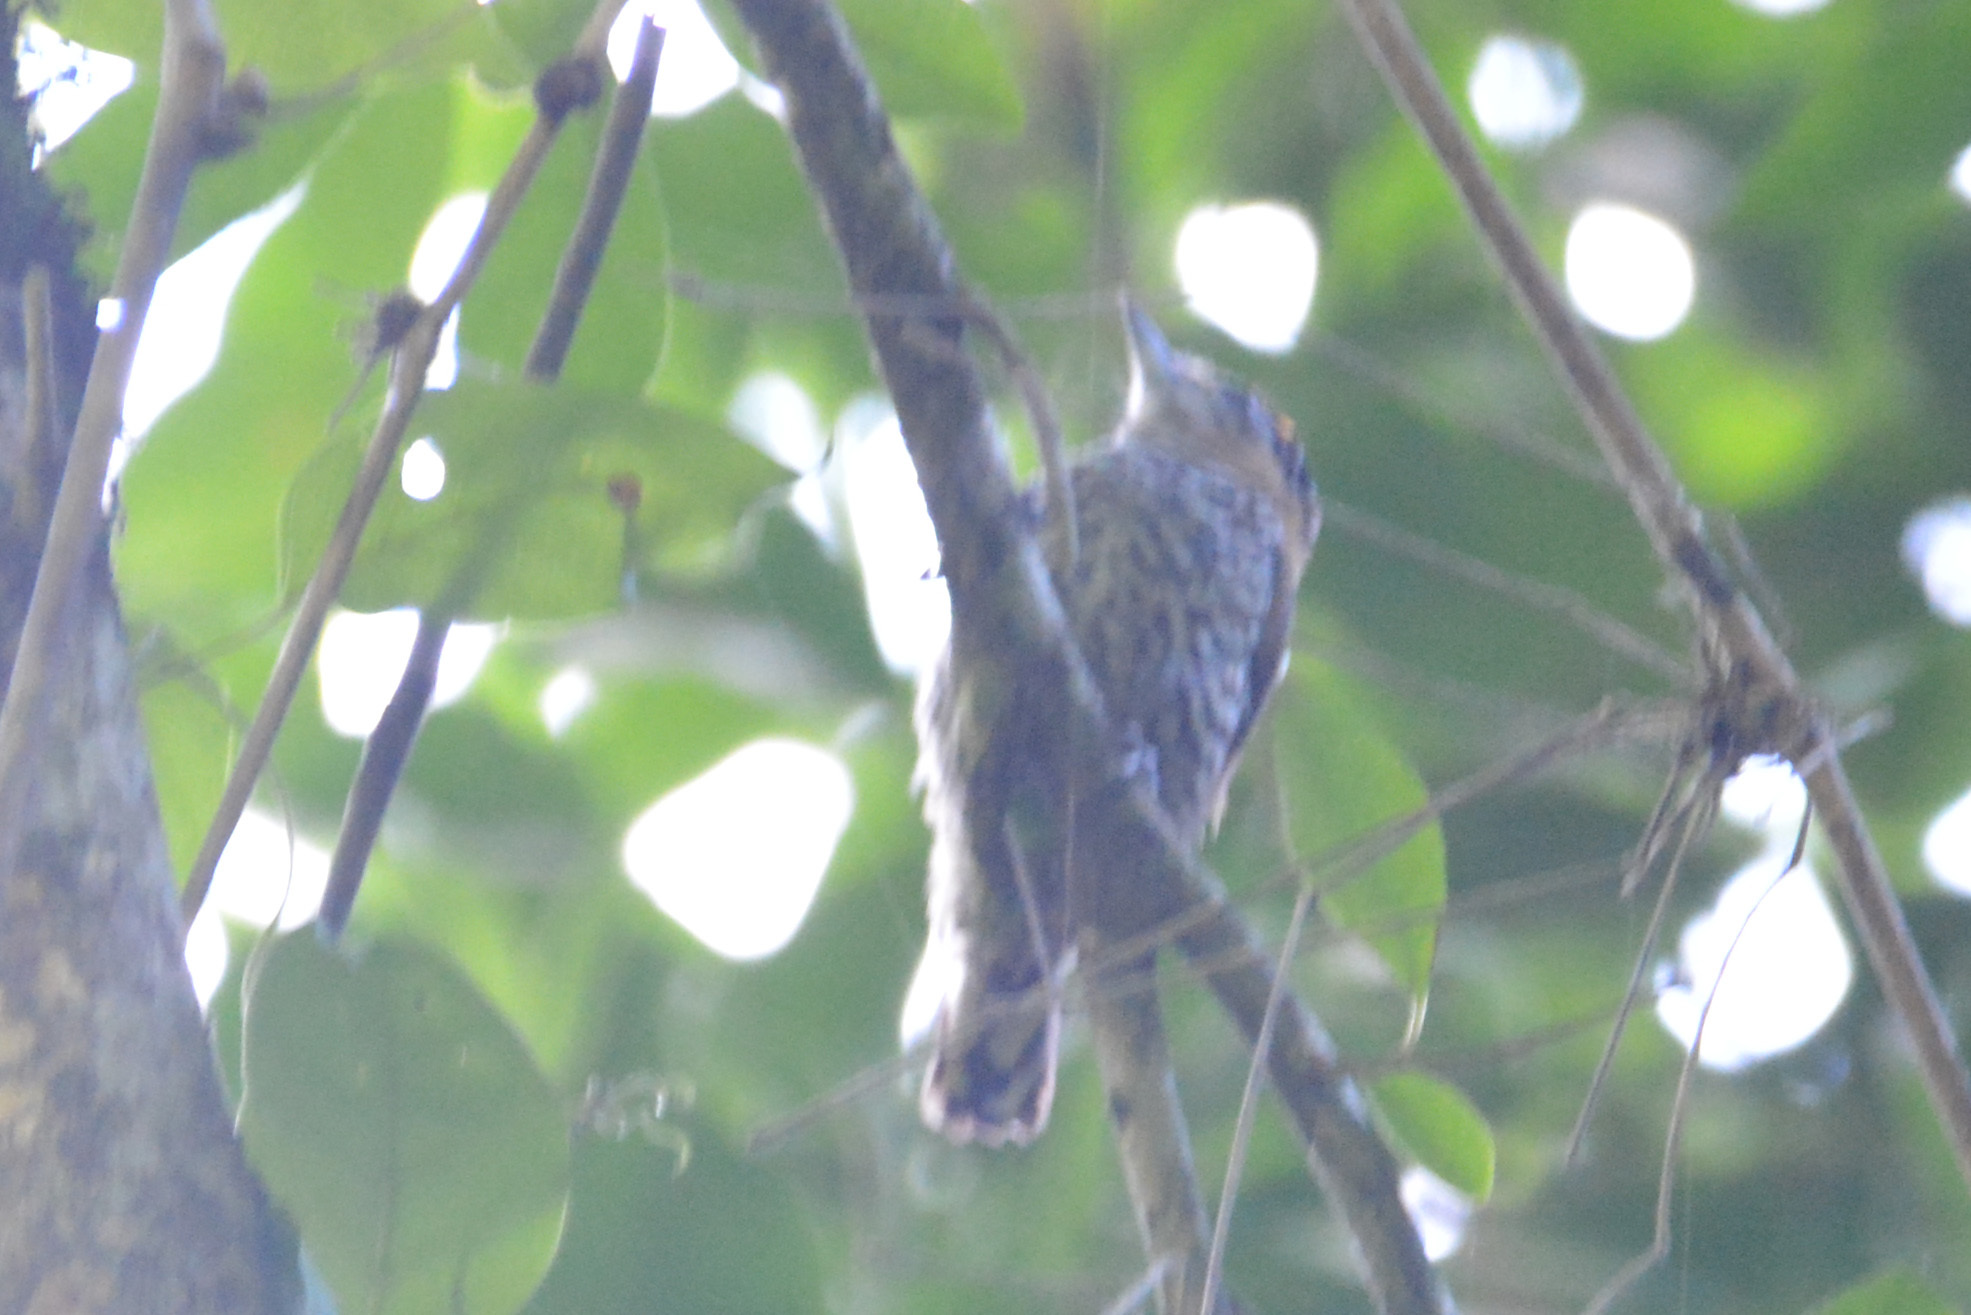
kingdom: Animalia
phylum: Chordata
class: Aves
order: Piciformes
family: Picidae
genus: Picumnus
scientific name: Picumnus temminckii
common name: Ochre-collared piculet
